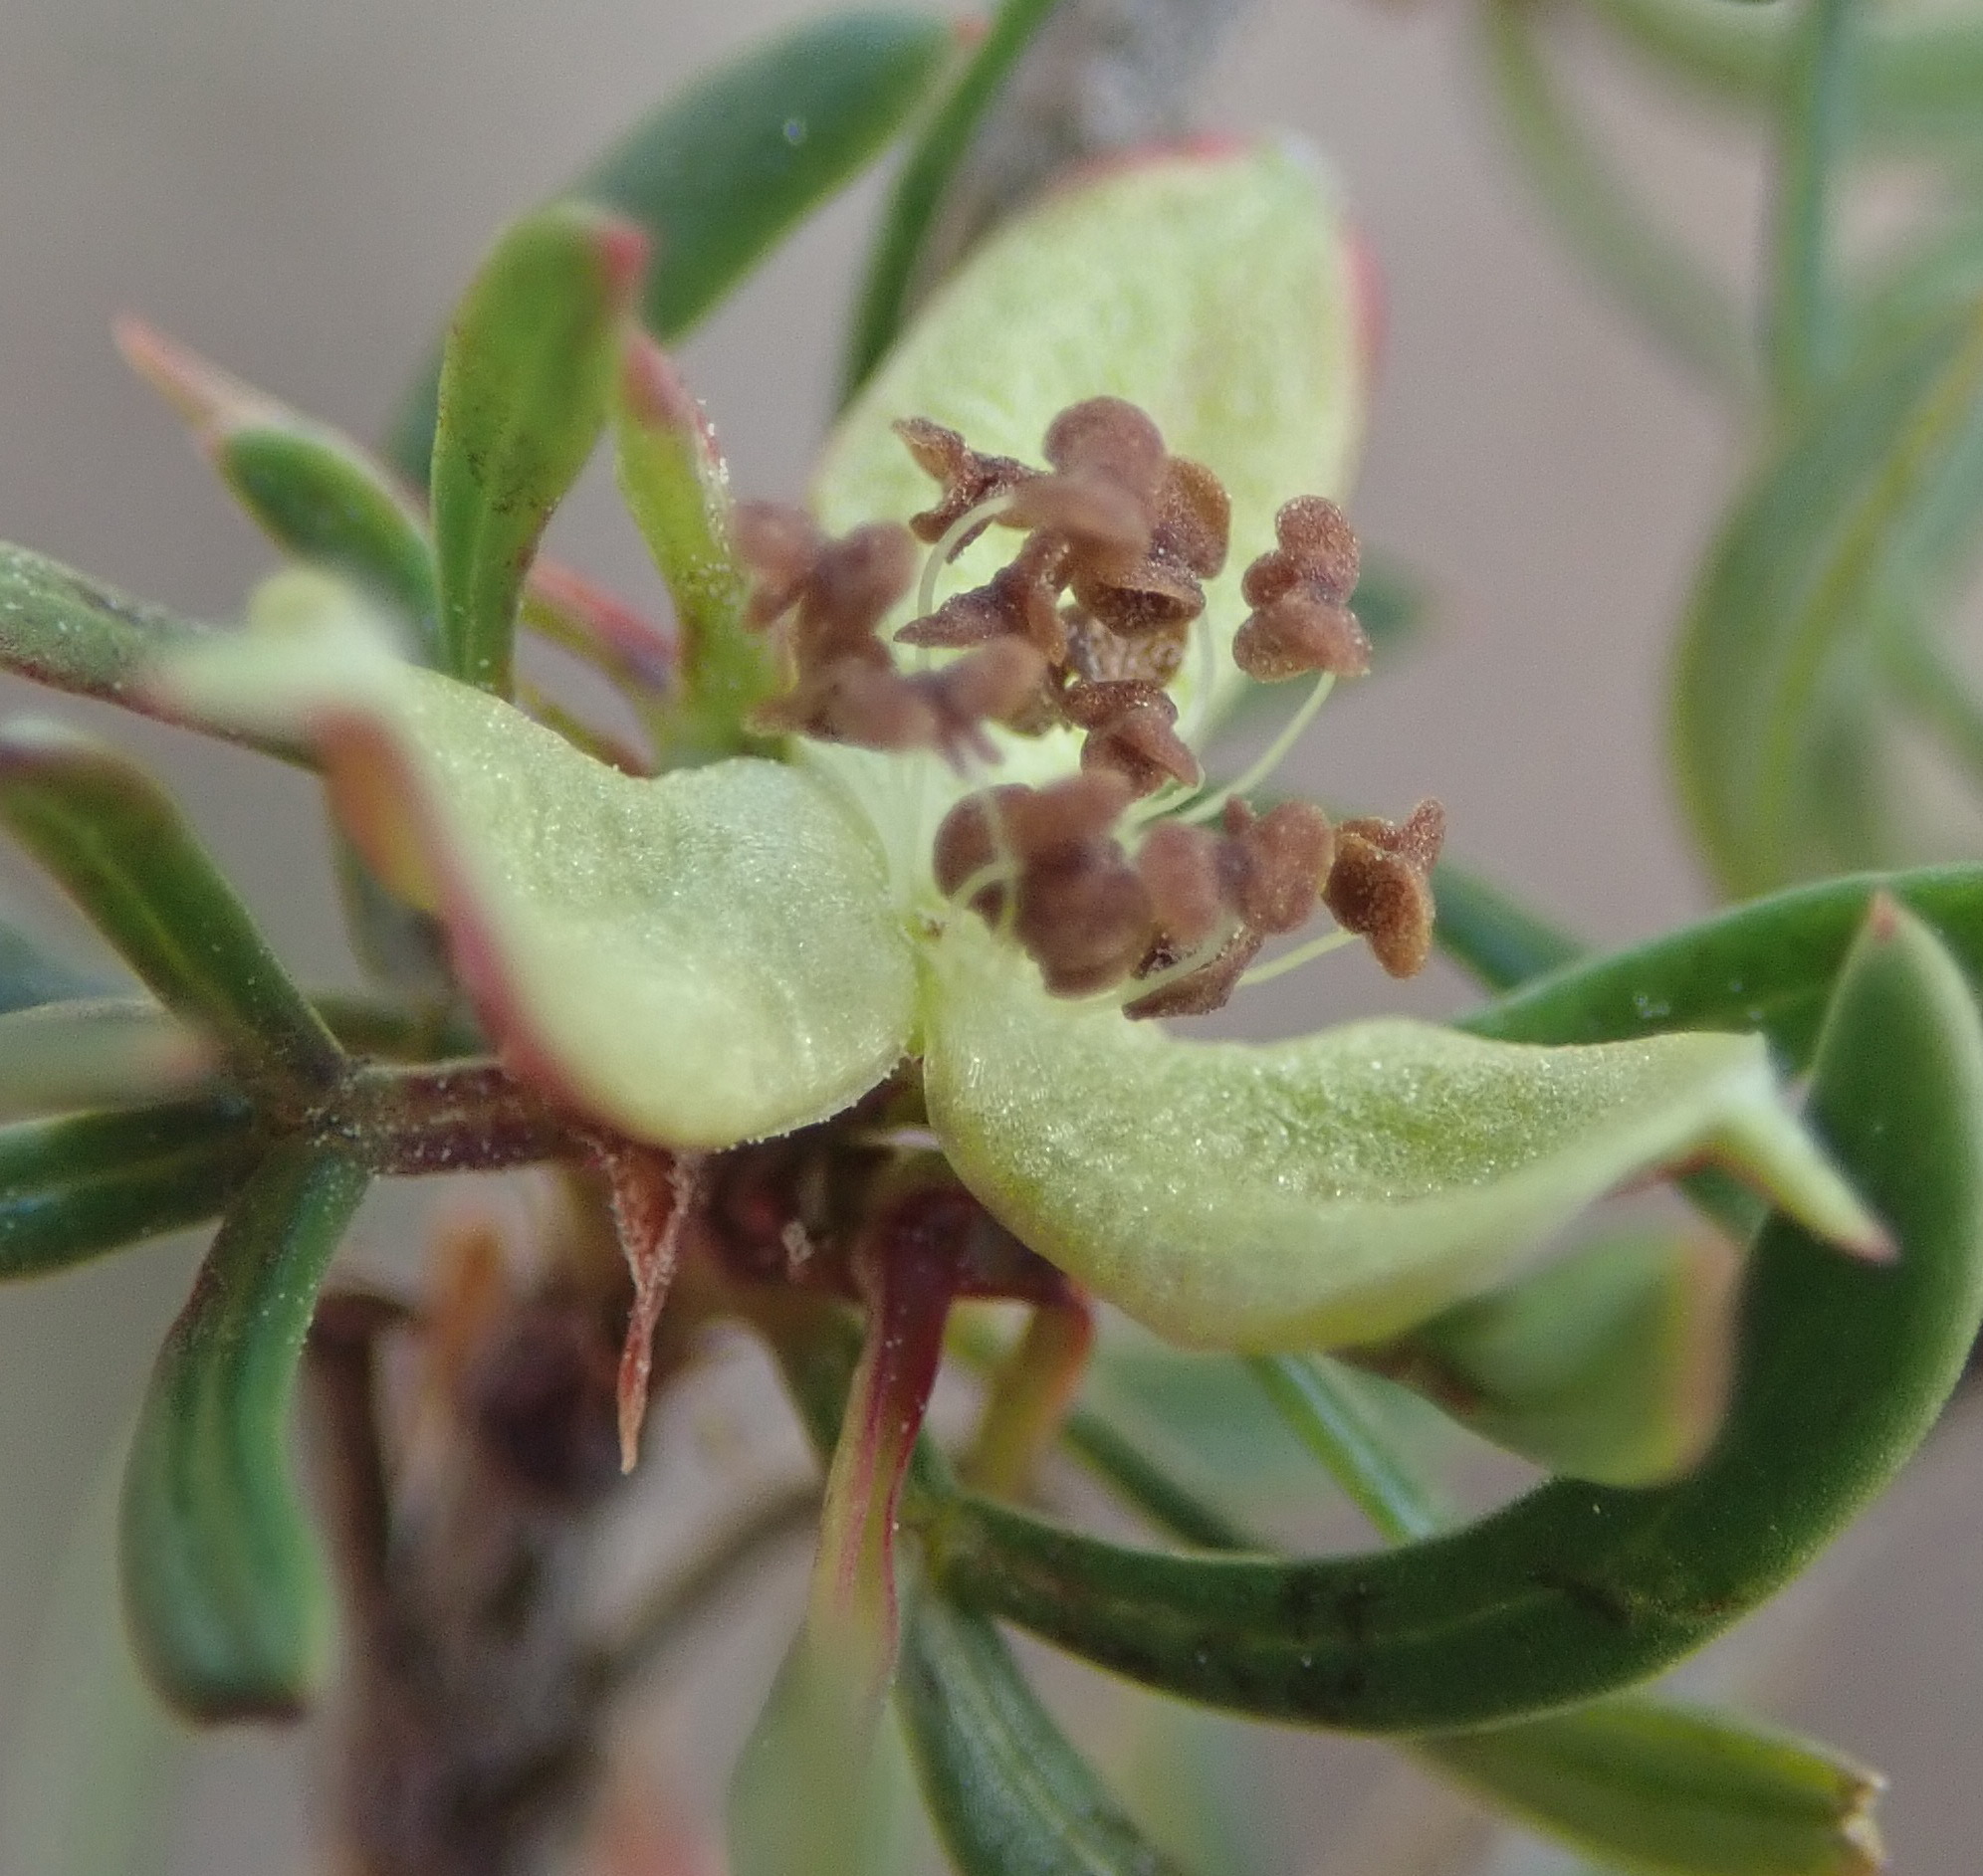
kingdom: Plantae
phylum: Tracheophyta
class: Magnoliopsida
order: Rosales
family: Rosaceae
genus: Cliffortia
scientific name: Cliffortia falcata
